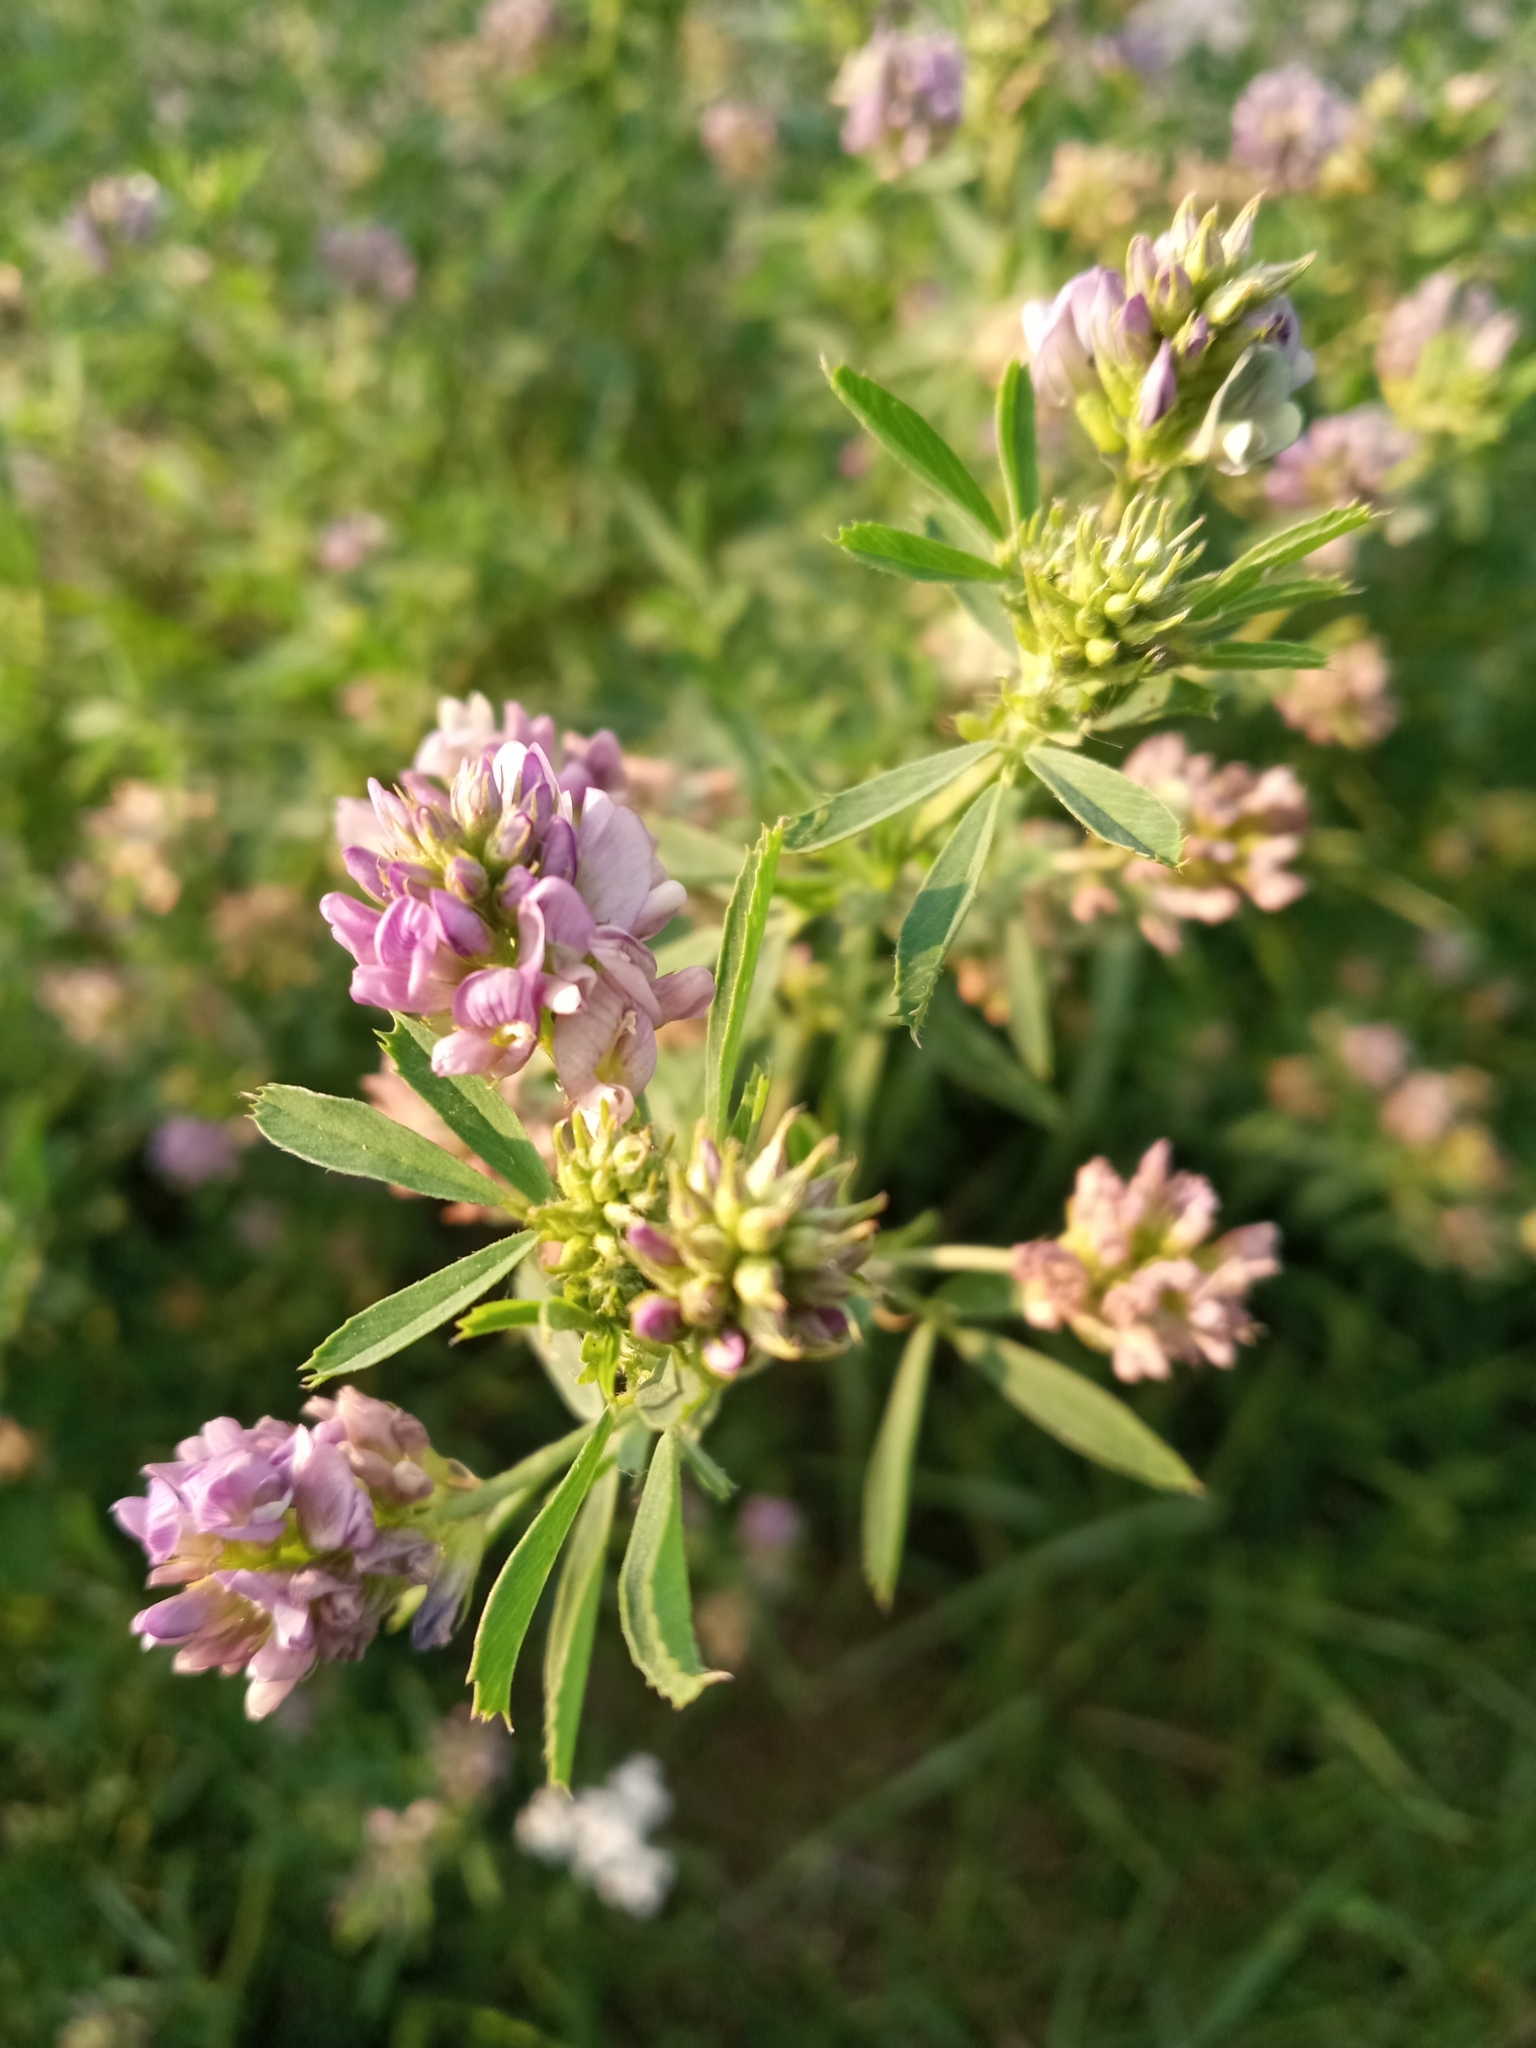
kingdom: Plantae
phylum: Tracheophyta
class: Magnoliopsida
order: Fabales
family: Fabaceae
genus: Medicago
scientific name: Medicago sativa
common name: Alfalfa
